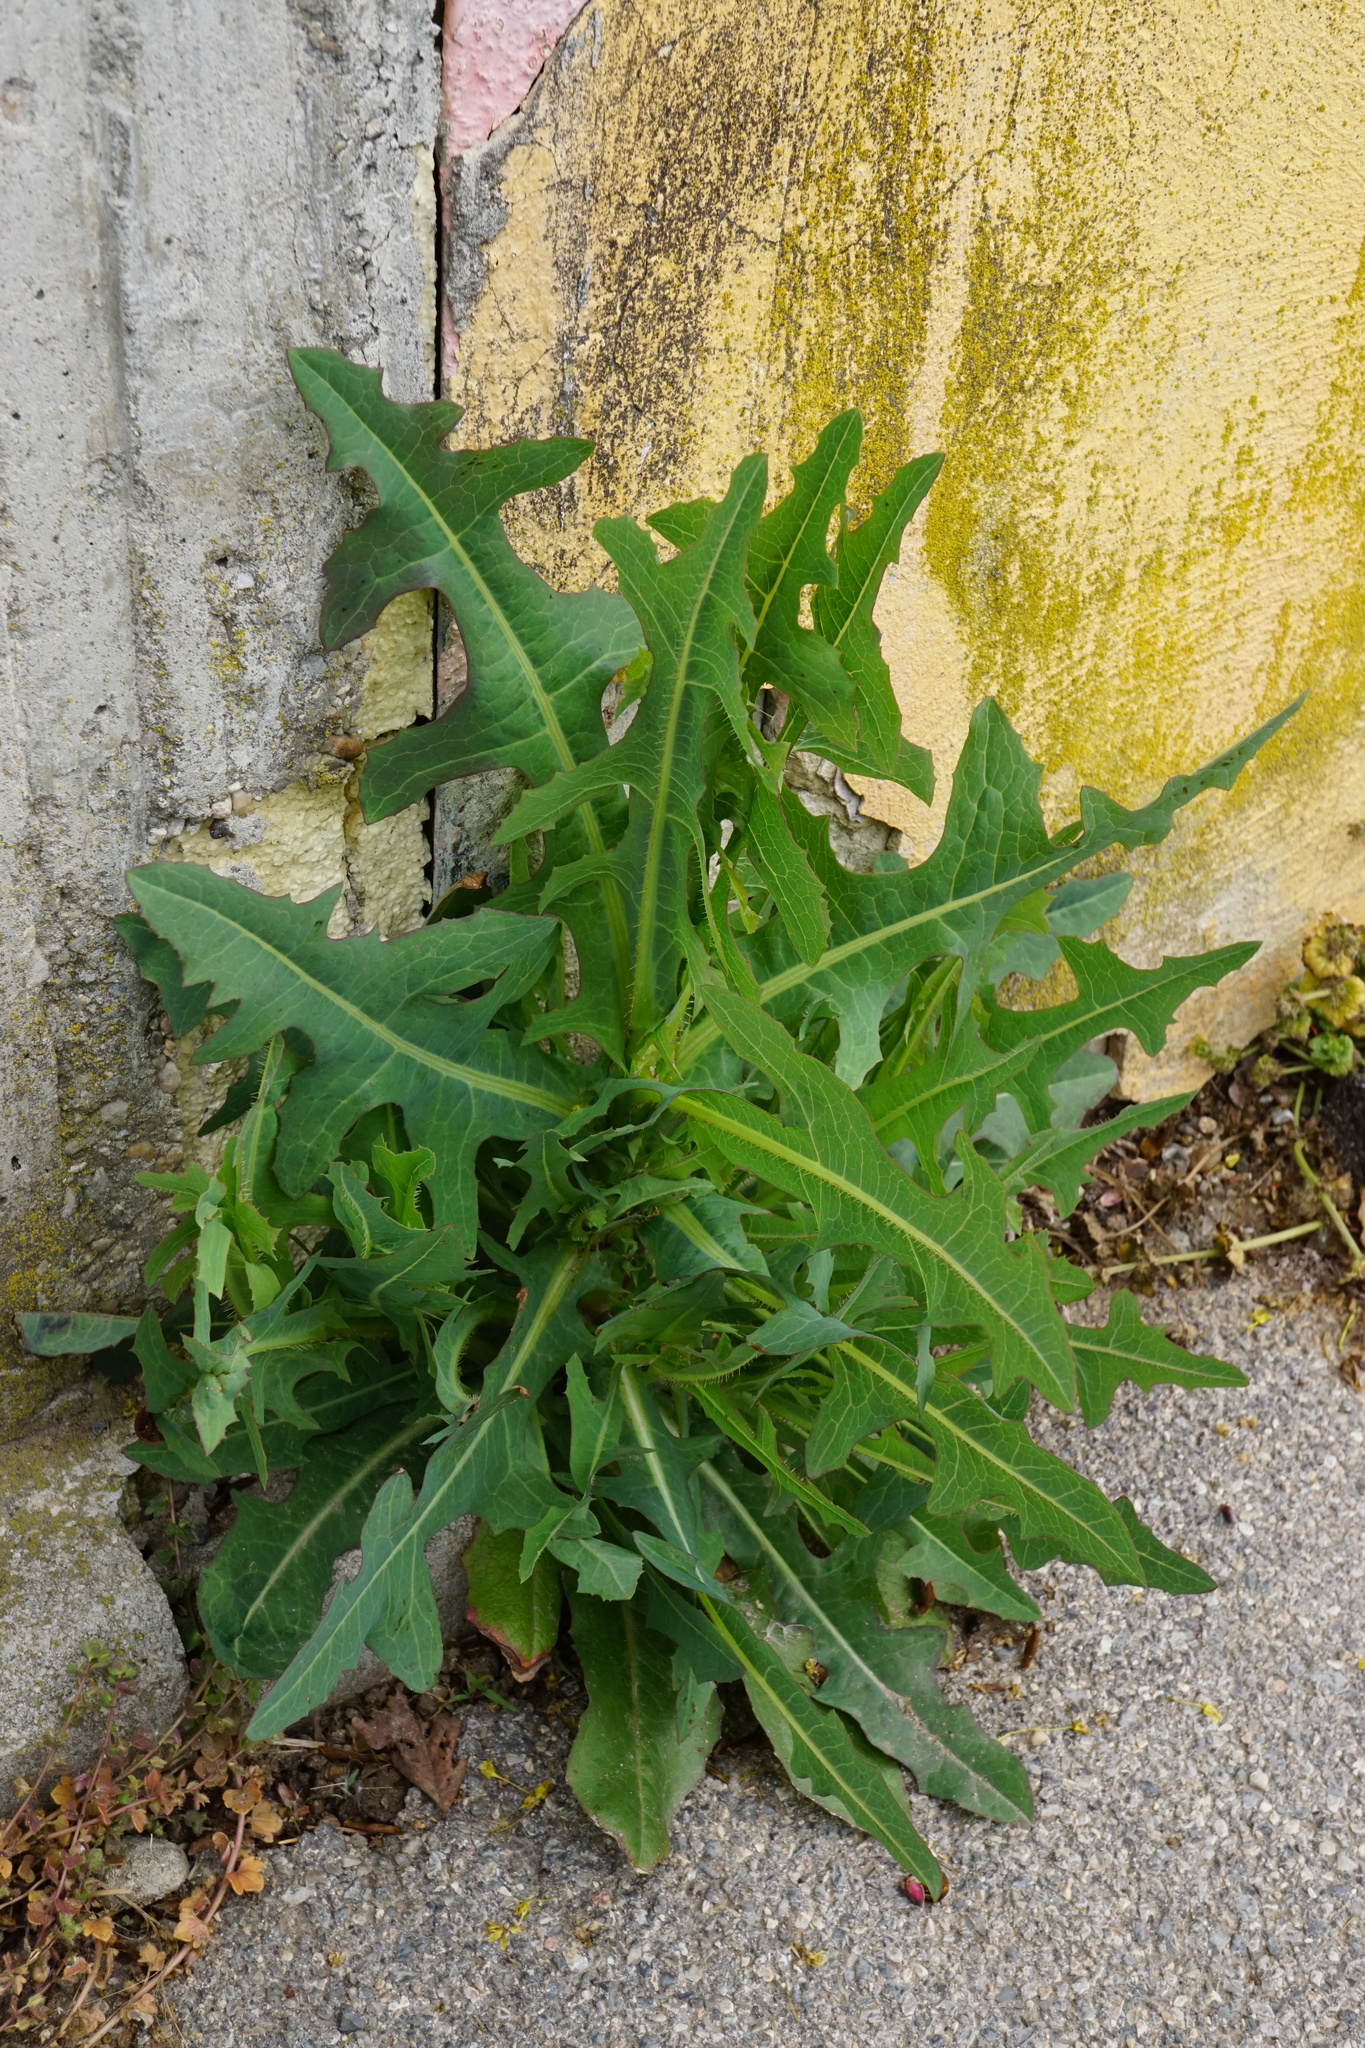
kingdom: Plantae
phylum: Tracheophyta
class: Magnoliopsida
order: Asterales
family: Asteraceae
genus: Lactuca
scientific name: Lactuca serriola
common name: Prickly lettuce
